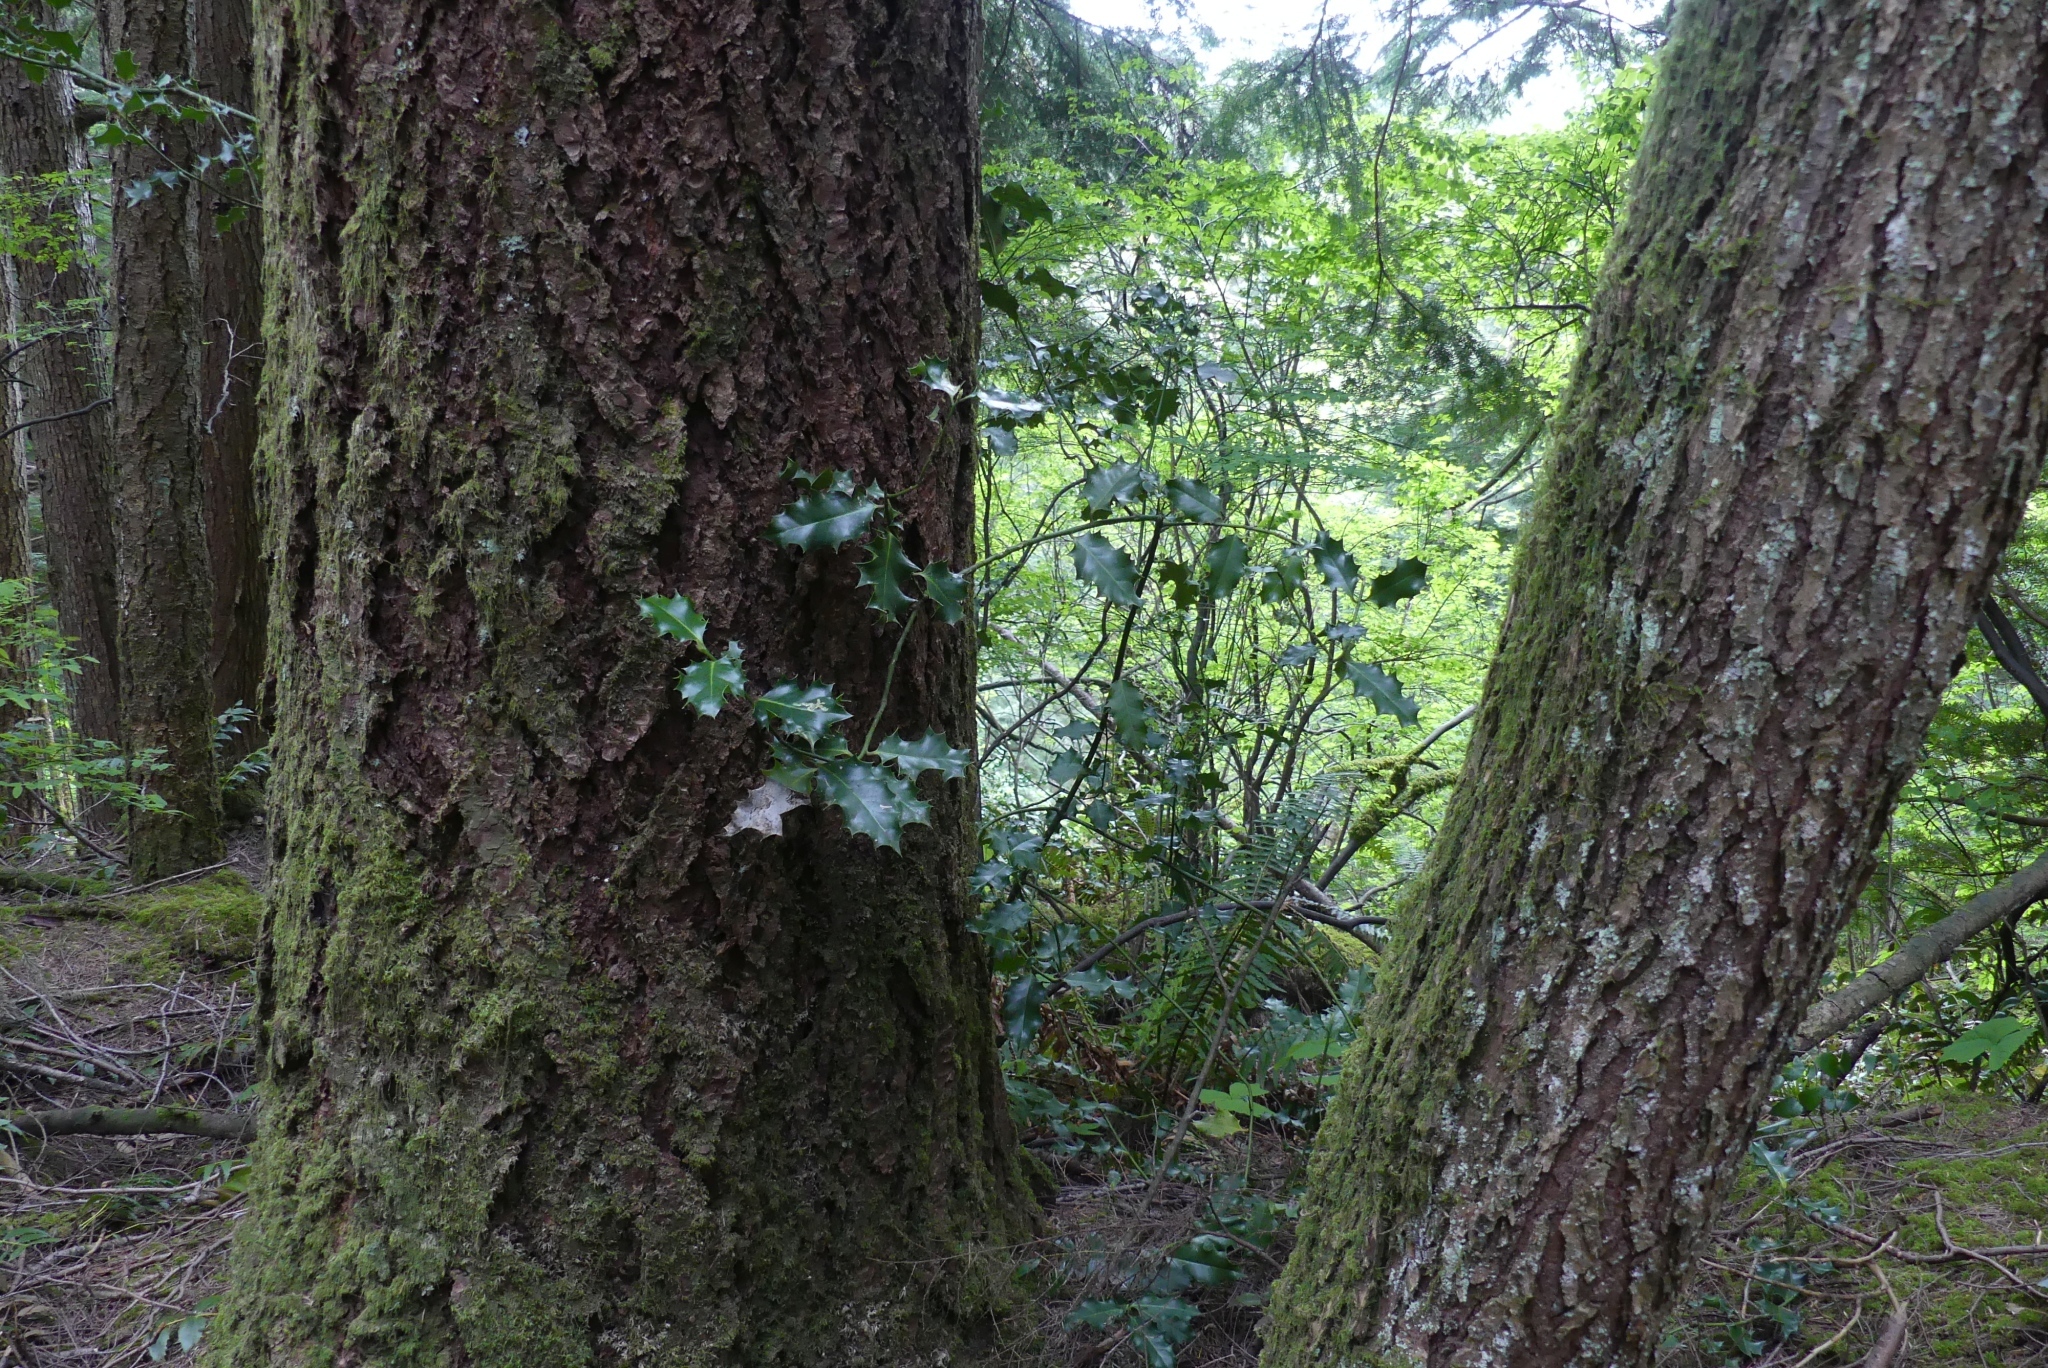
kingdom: Plantae
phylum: Tracheophyta
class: Magnoliopsida
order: Aquifoliales
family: Aquifoliaceae
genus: Ilex
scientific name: Ilex aquifolium
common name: English holly
